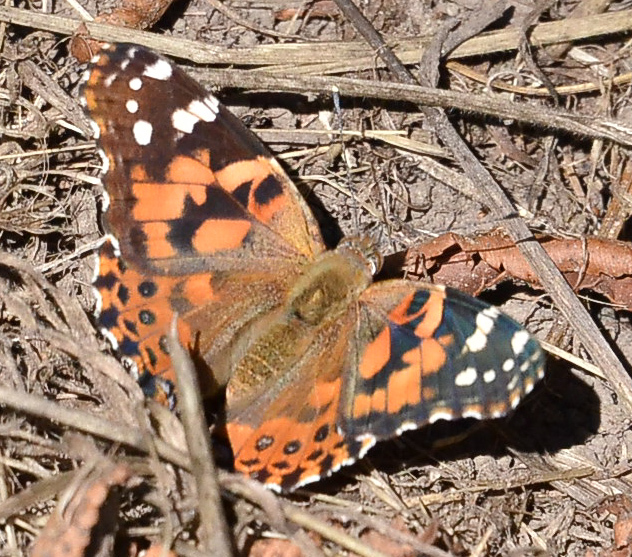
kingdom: Animalia
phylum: Arthropoda
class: Insecta
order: Lepidoptera
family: Nymphalidae
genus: Vanessa
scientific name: Vanessa cardui
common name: Painted lady
